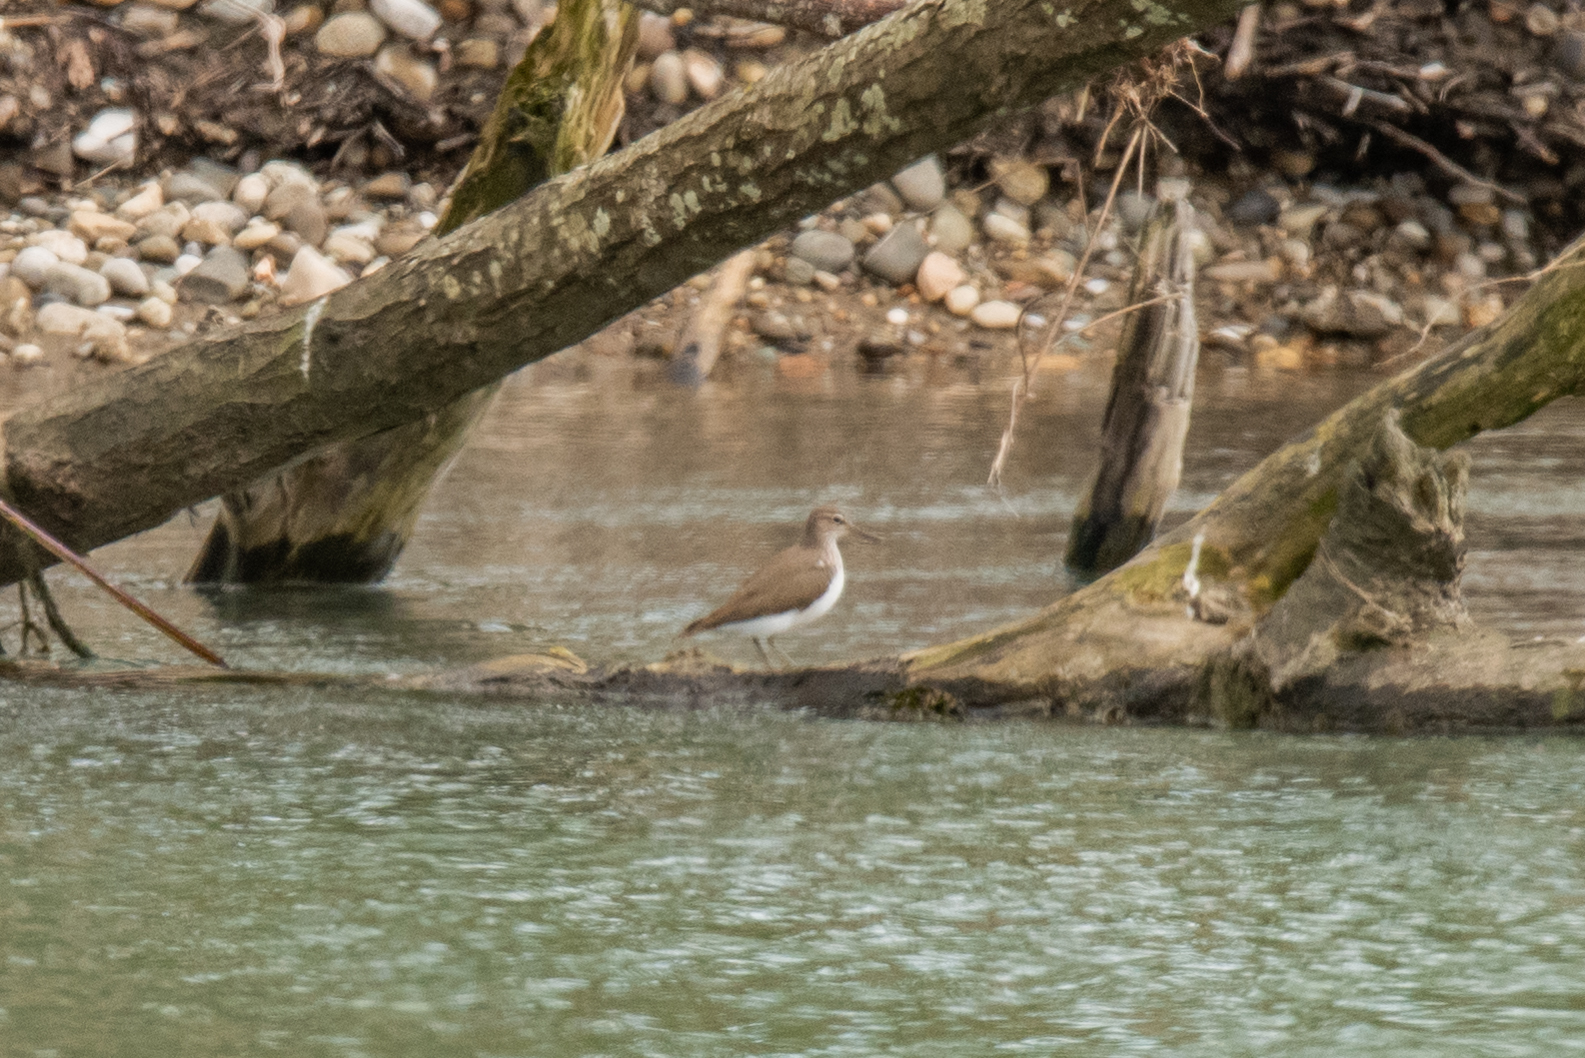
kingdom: Animalia
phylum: Chordata
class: Aves
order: Charadriiformes
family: Scolopacidae
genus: Actitis
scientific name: Actitis hypoleucos
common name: Common sandpiper
